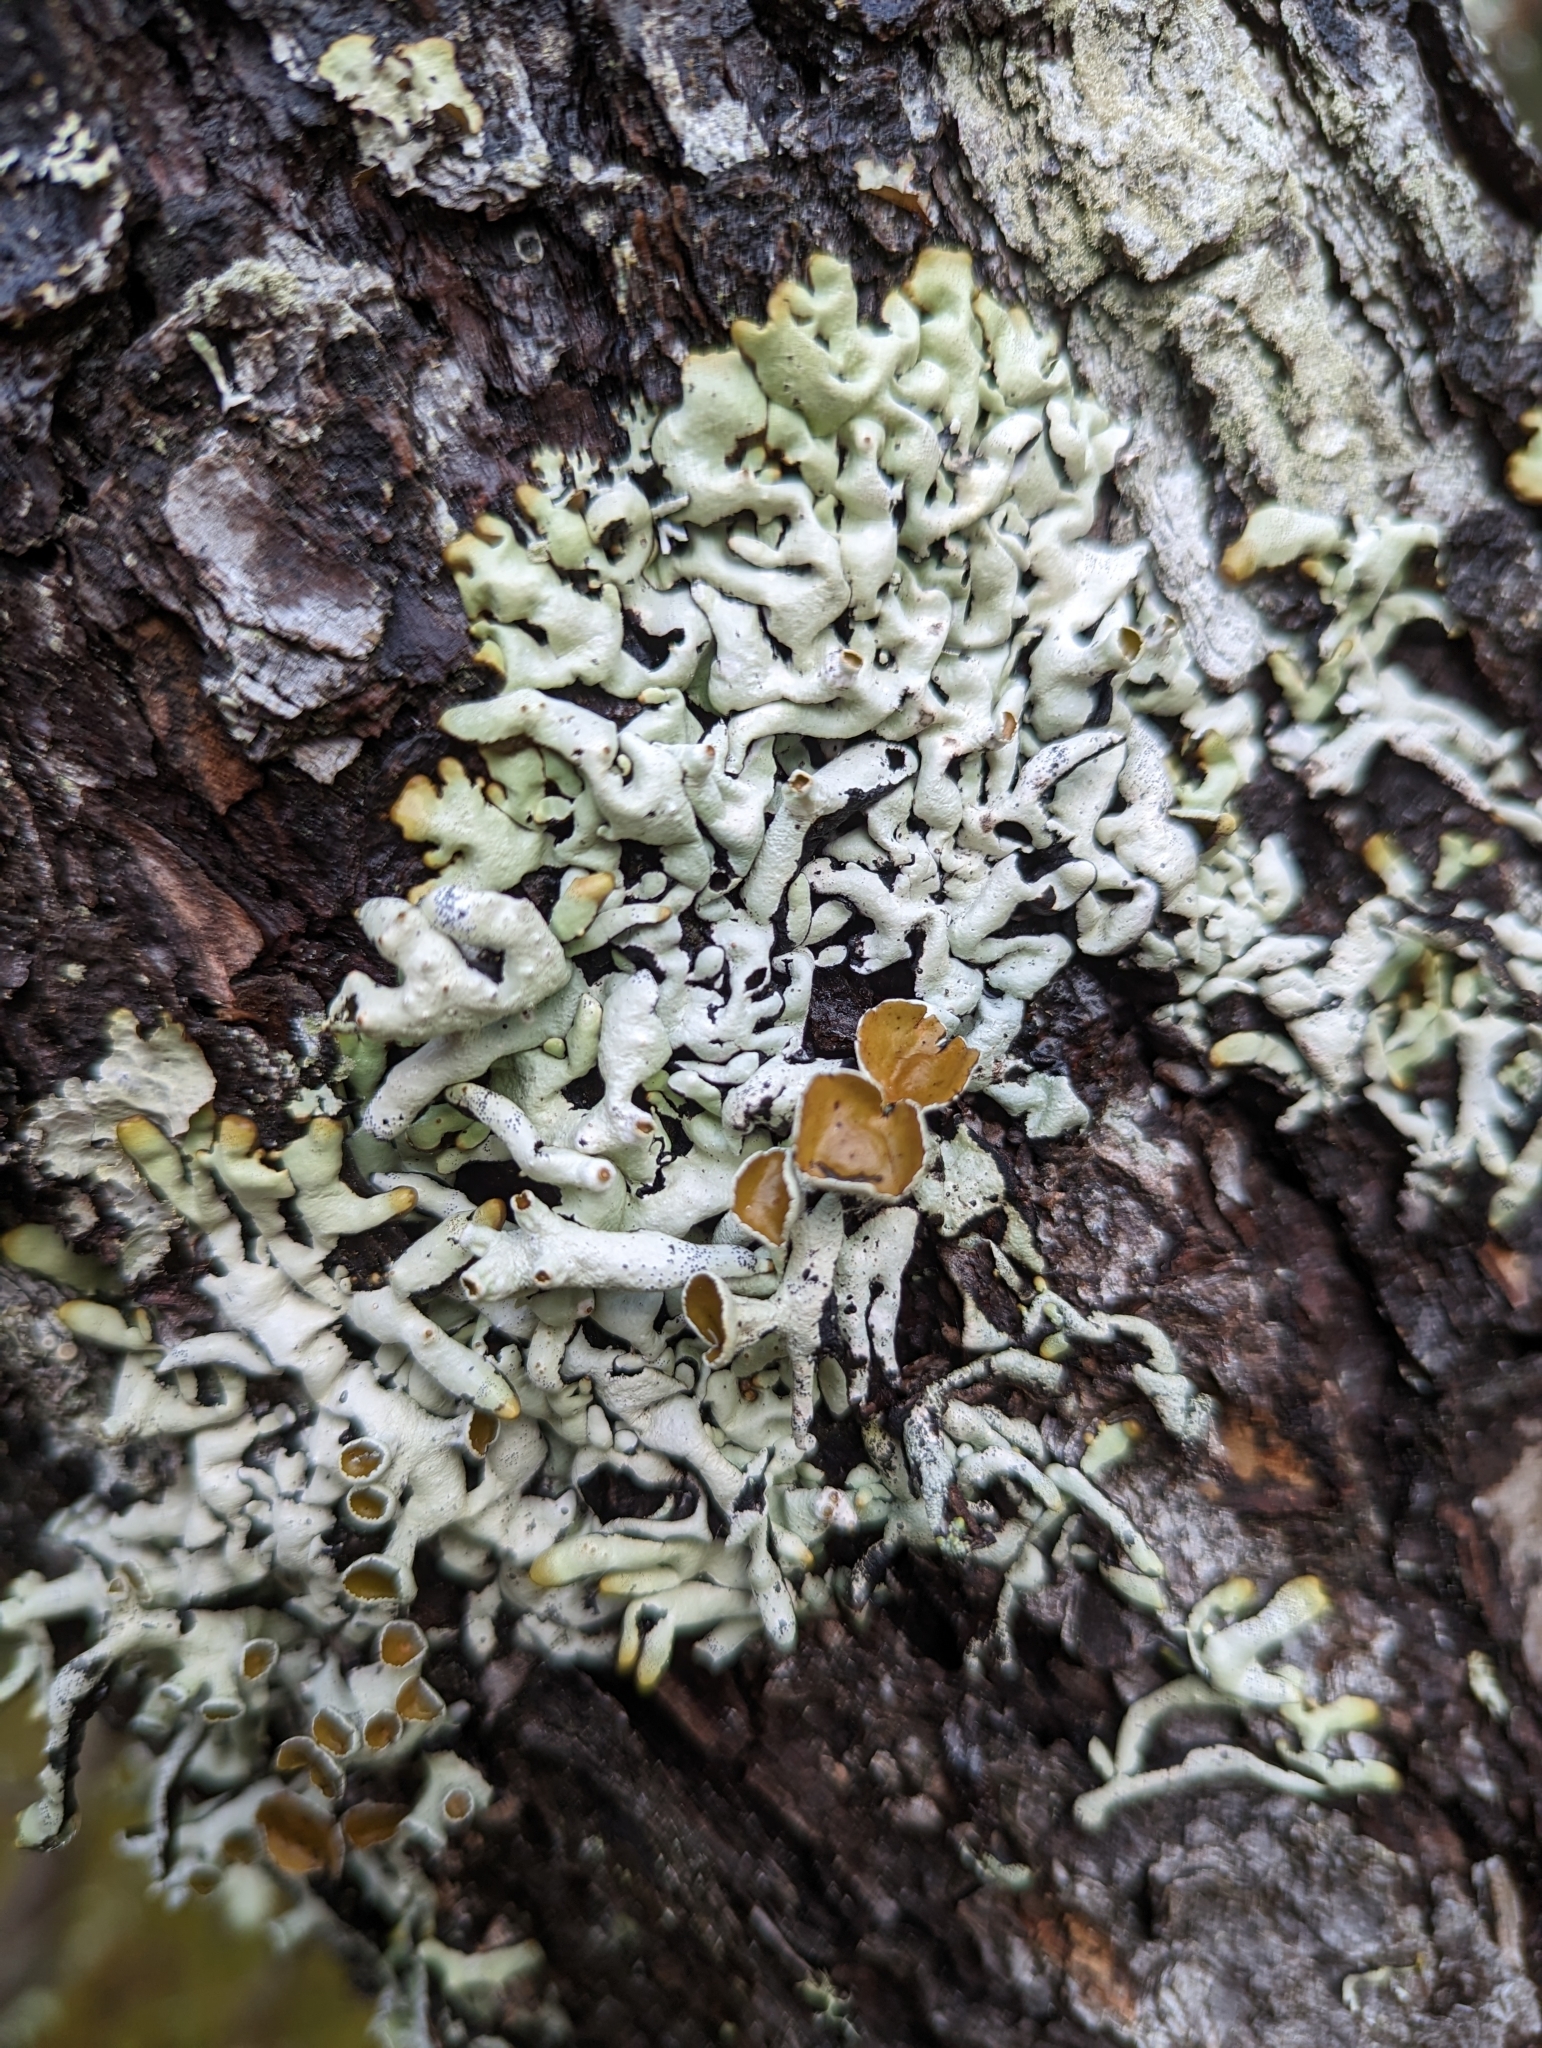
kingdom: Fungi
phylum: Ascomycota
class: Lecanoromycetes
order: Lecanorales
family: Parmeliaceae
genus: Hypogymnia
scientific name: Hypogymnia imshaugii
